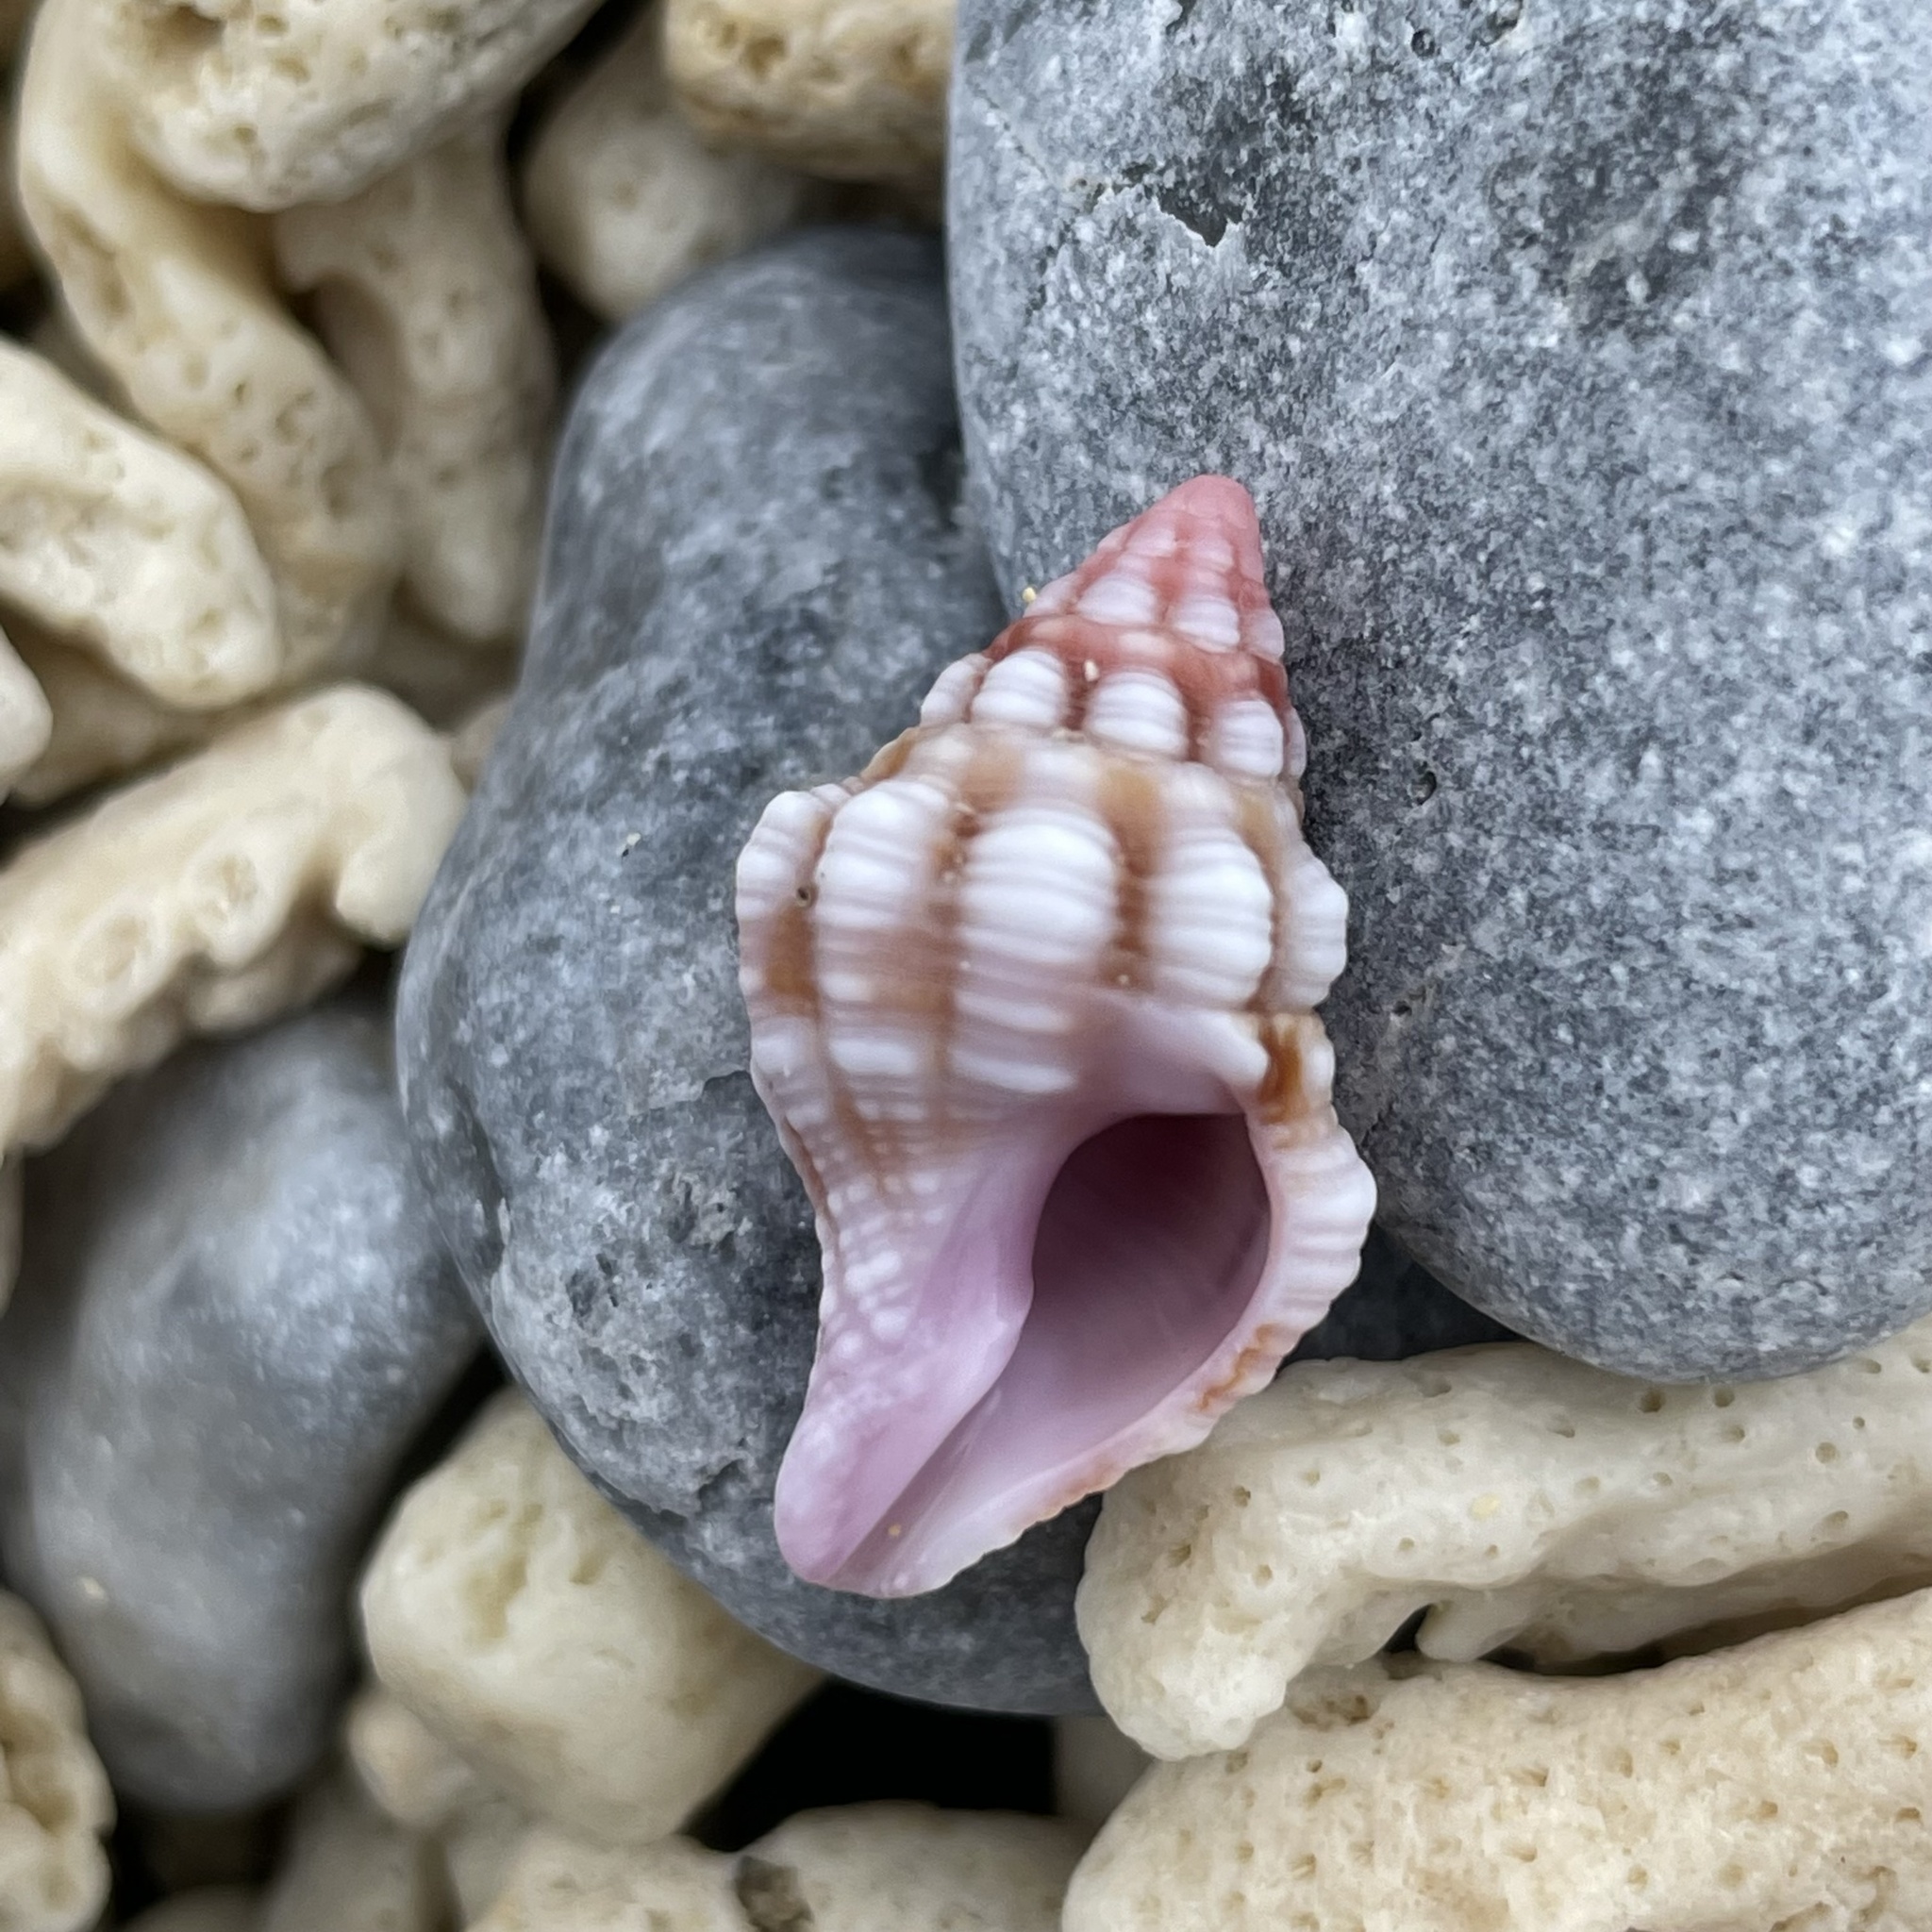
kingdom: Animalia
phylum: Mollusca
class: Gastropoda
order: Neogastropoda
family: Fasciolariidae
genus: Peristernia
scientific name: Peristernia nassatula
